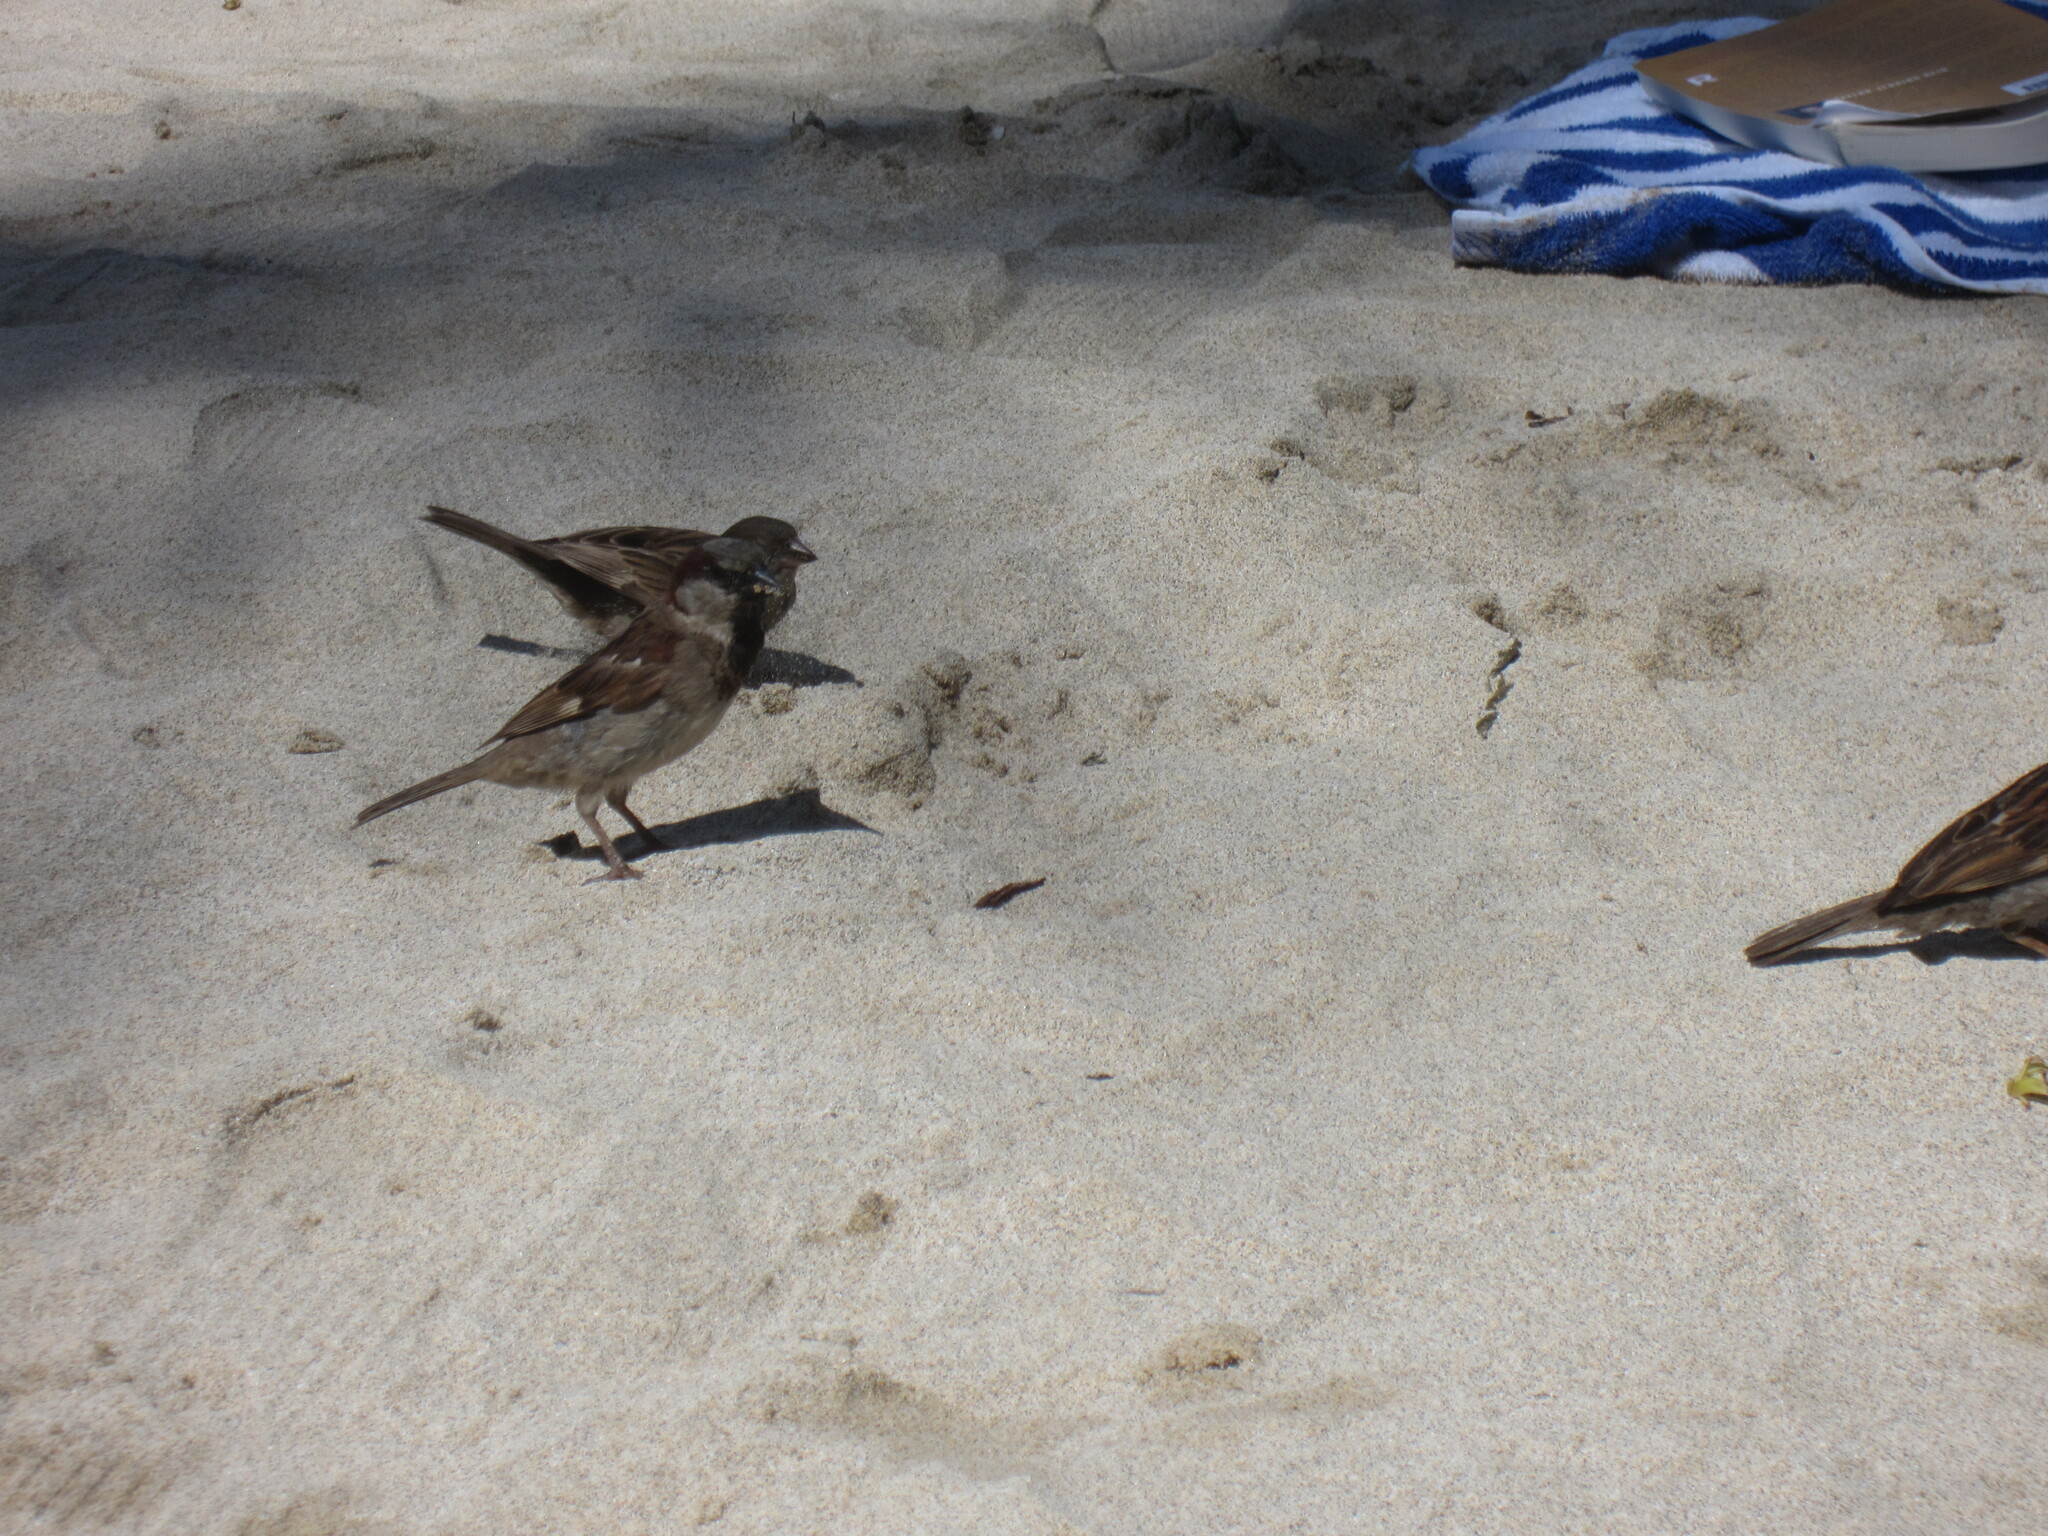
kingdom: Animalia
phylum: Chordata
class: Aves
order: Passeriformes
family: Passeridae
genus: Passer
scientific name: Passer domesticus
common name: House sparrow
